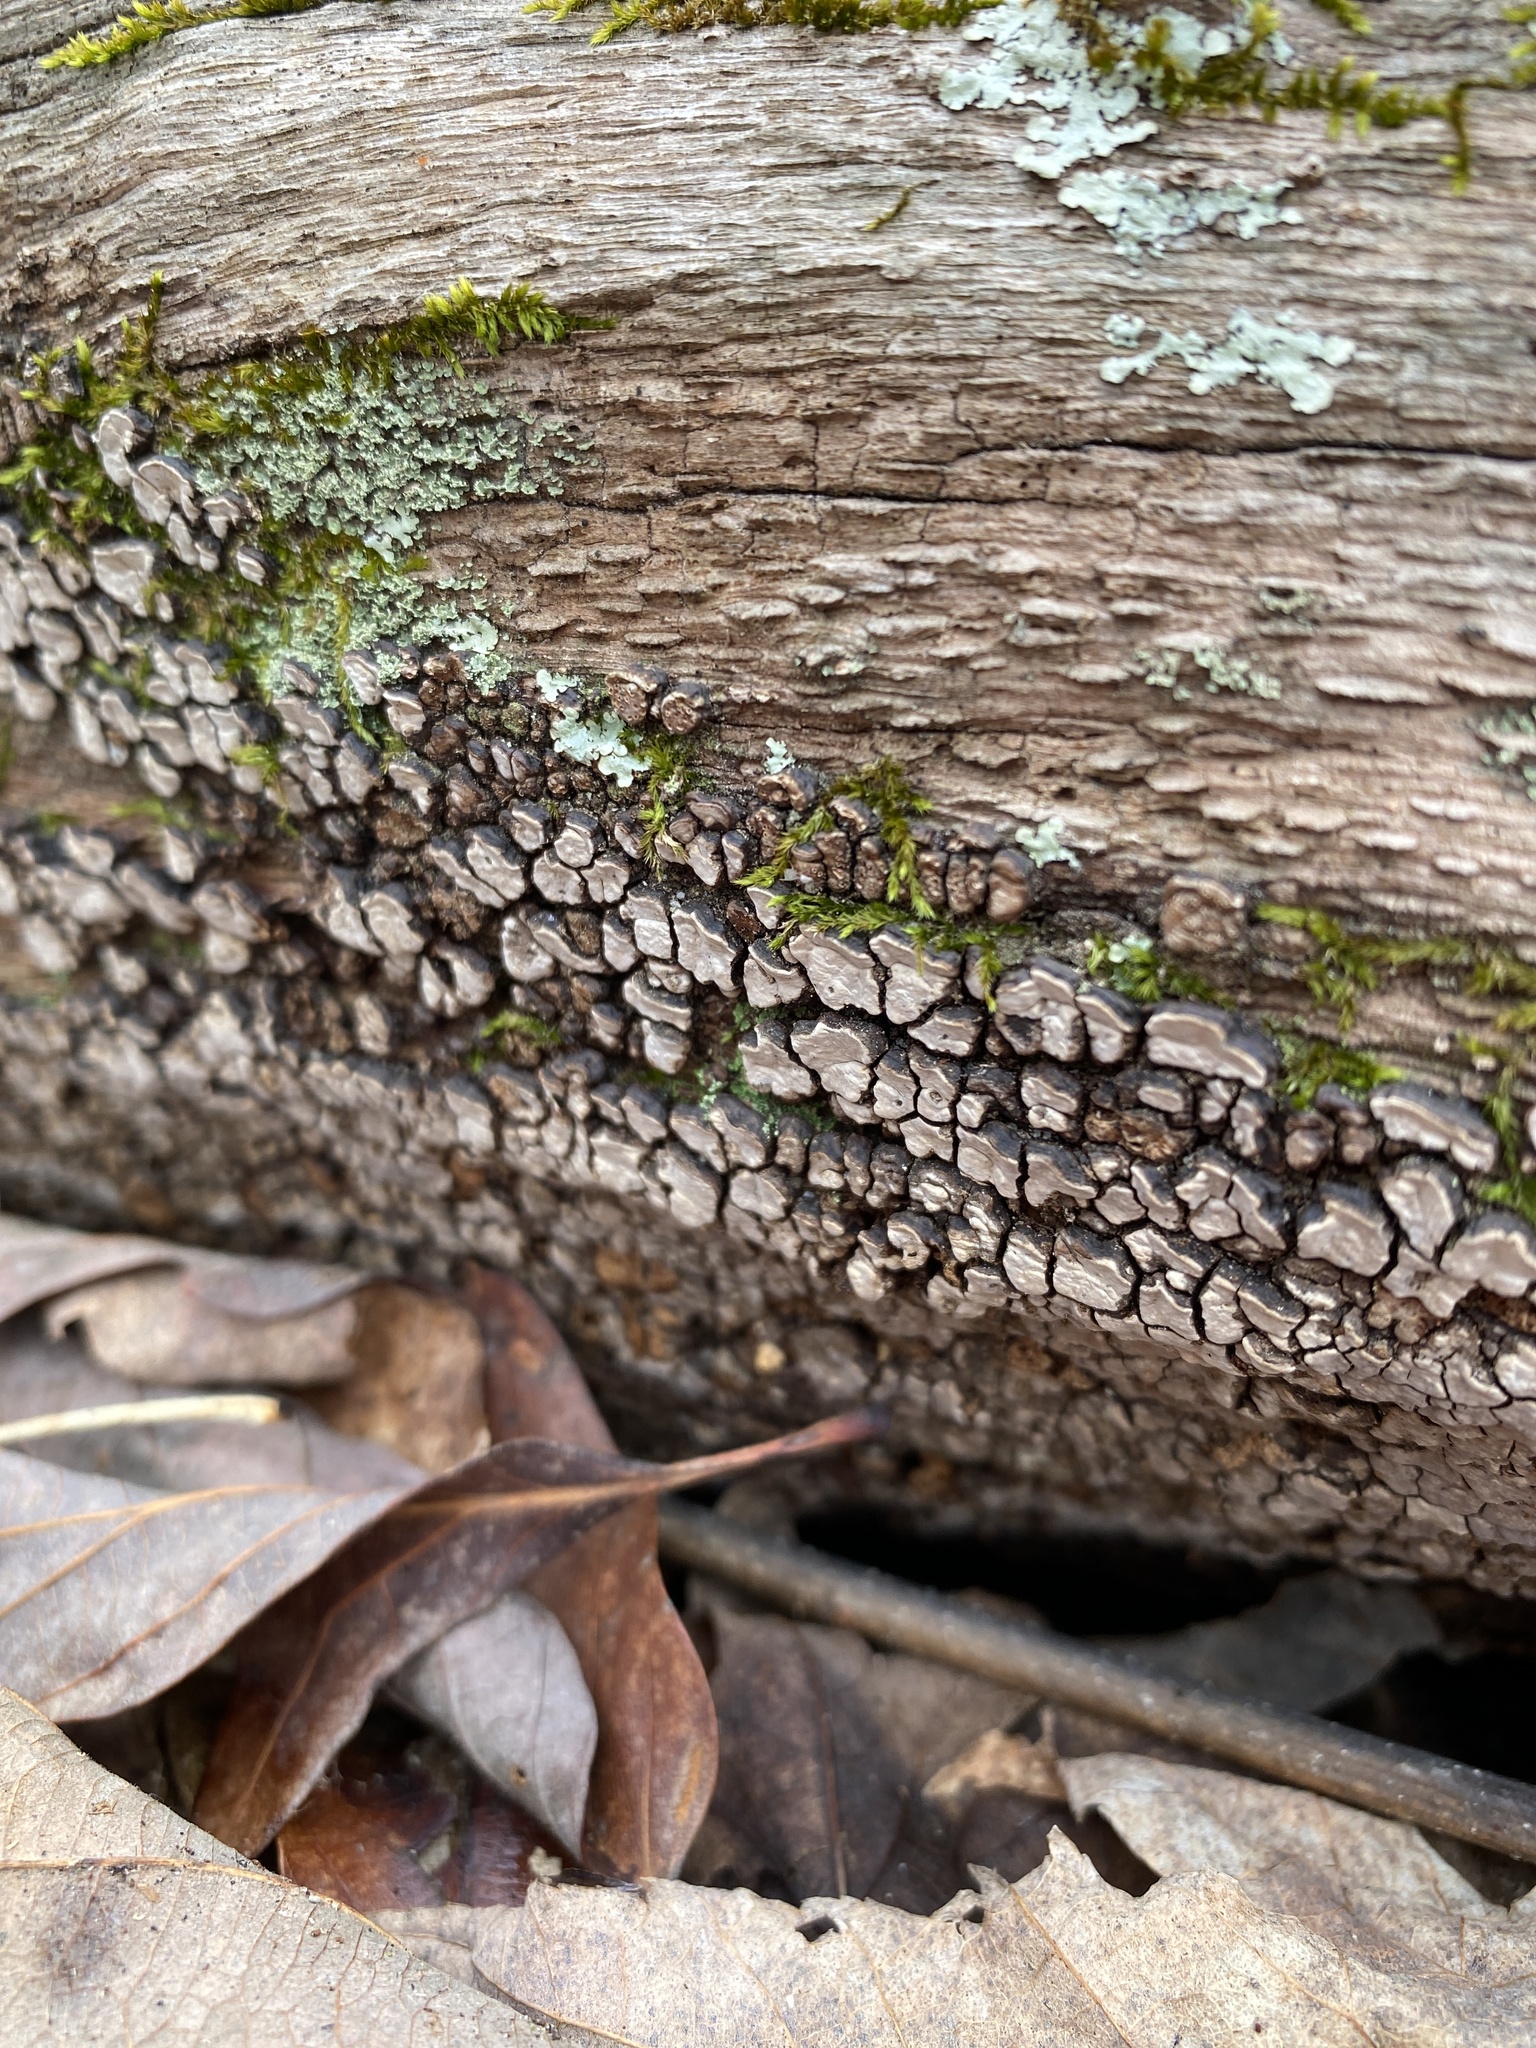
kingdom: Fungi
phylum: Basidiomycota
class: Agaricomycetes
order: Russulales
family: Stereaceae
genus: Xylobolus
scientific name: Xylobolus frustulatus
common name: Ceramic parchment
